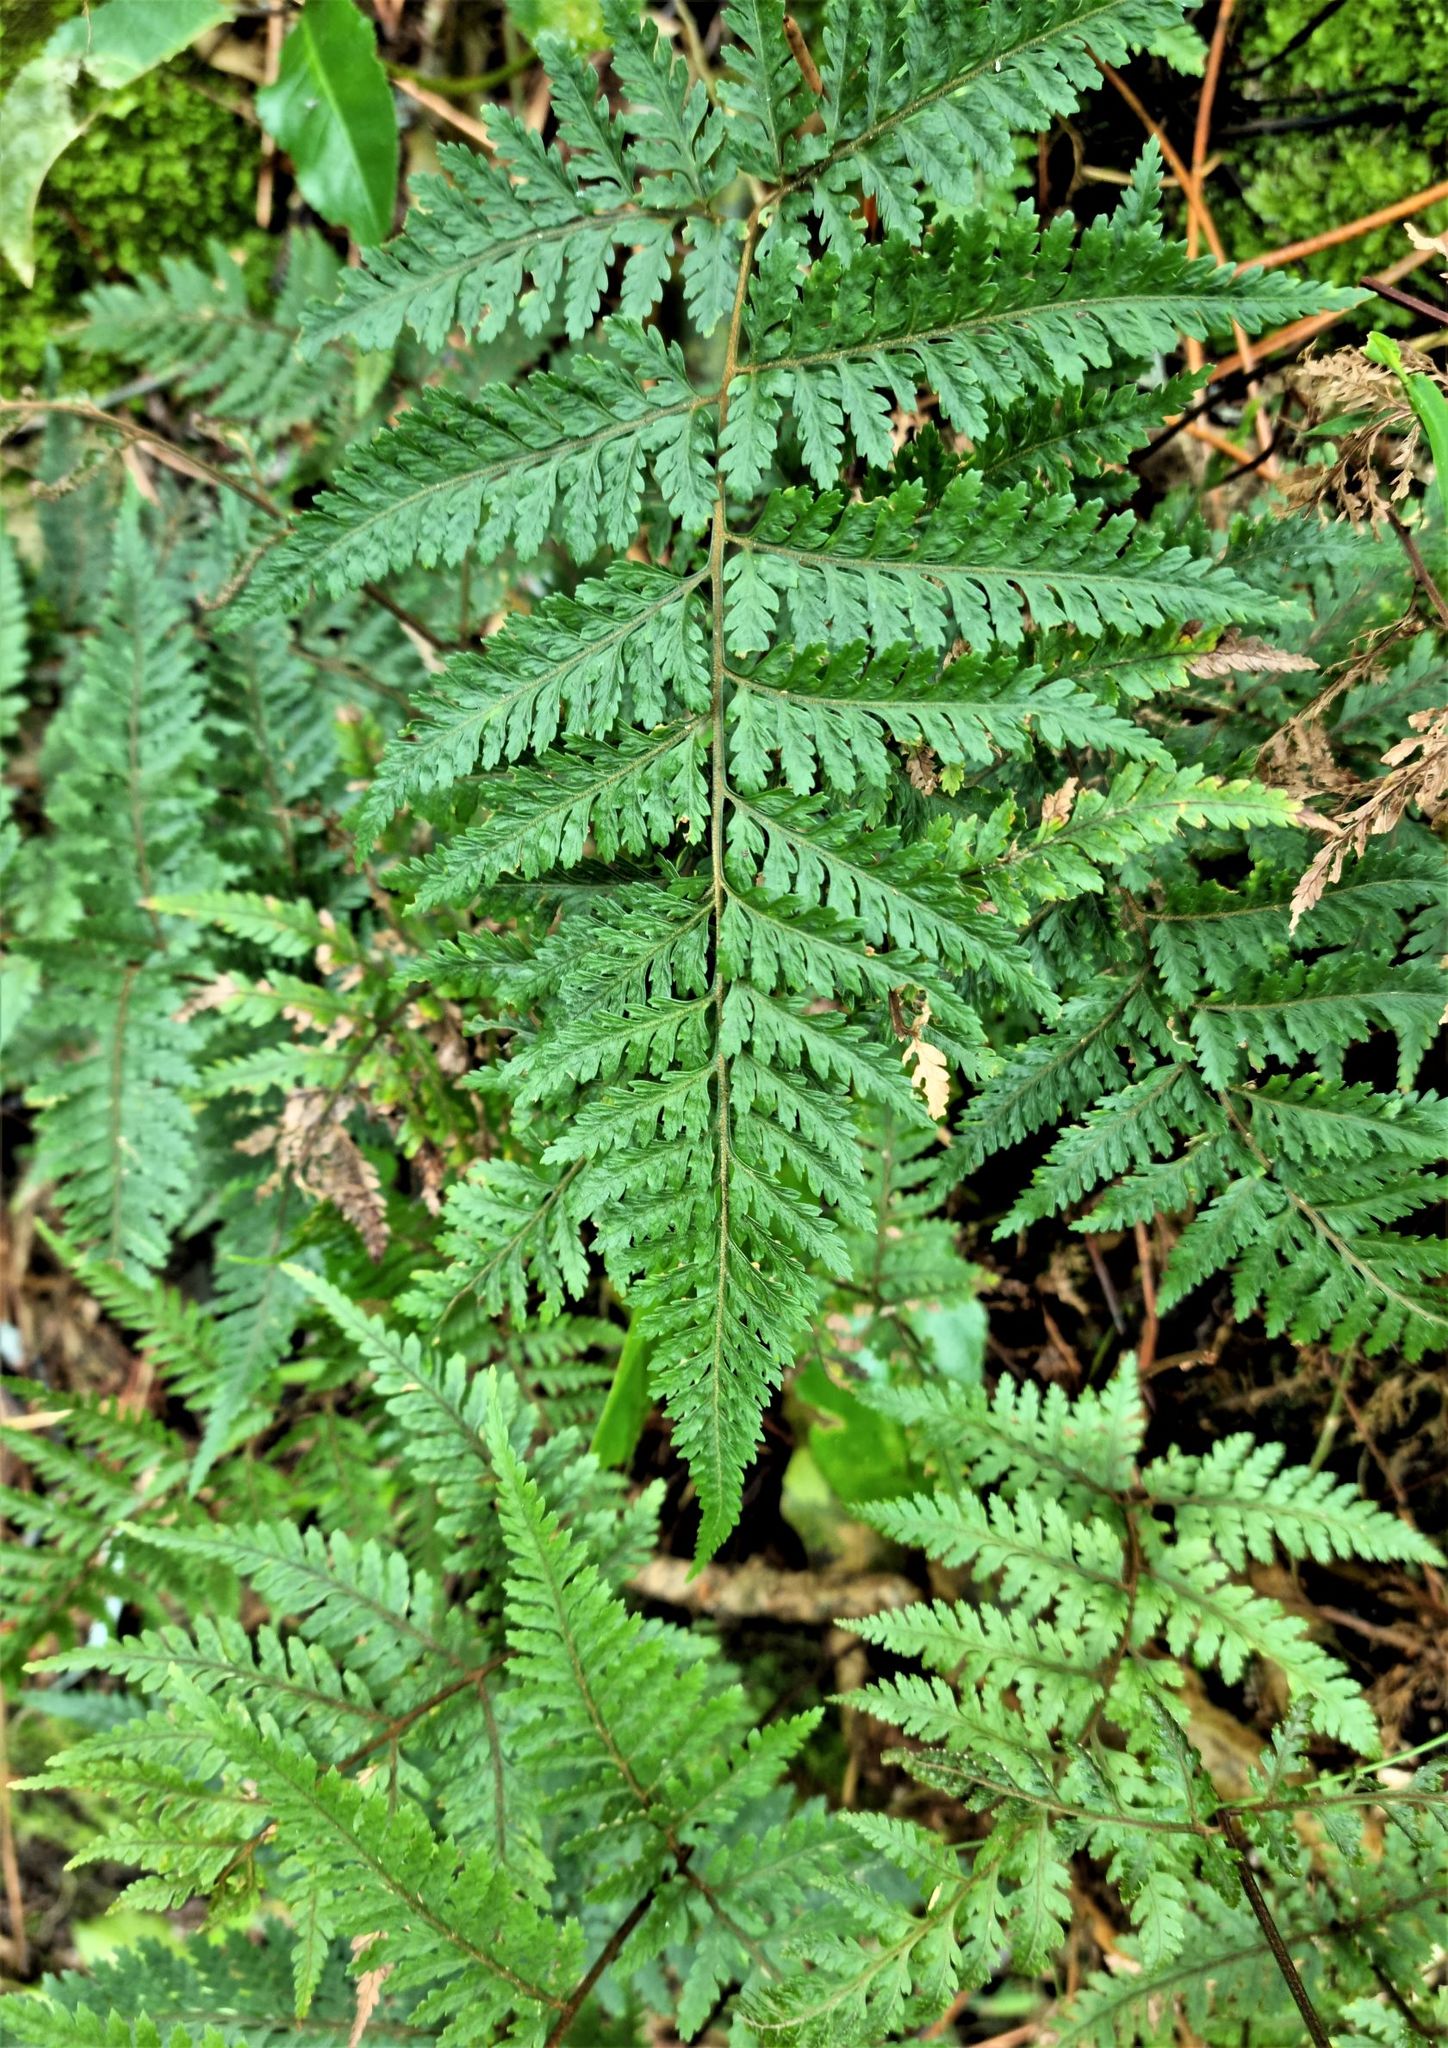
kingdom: Plantae
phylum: Tracheophyta
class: Polypodiopsida
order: Polypodiales
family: Dryopteridaceae
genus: Parapolystichum
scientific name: Parapolystichum glabellum
